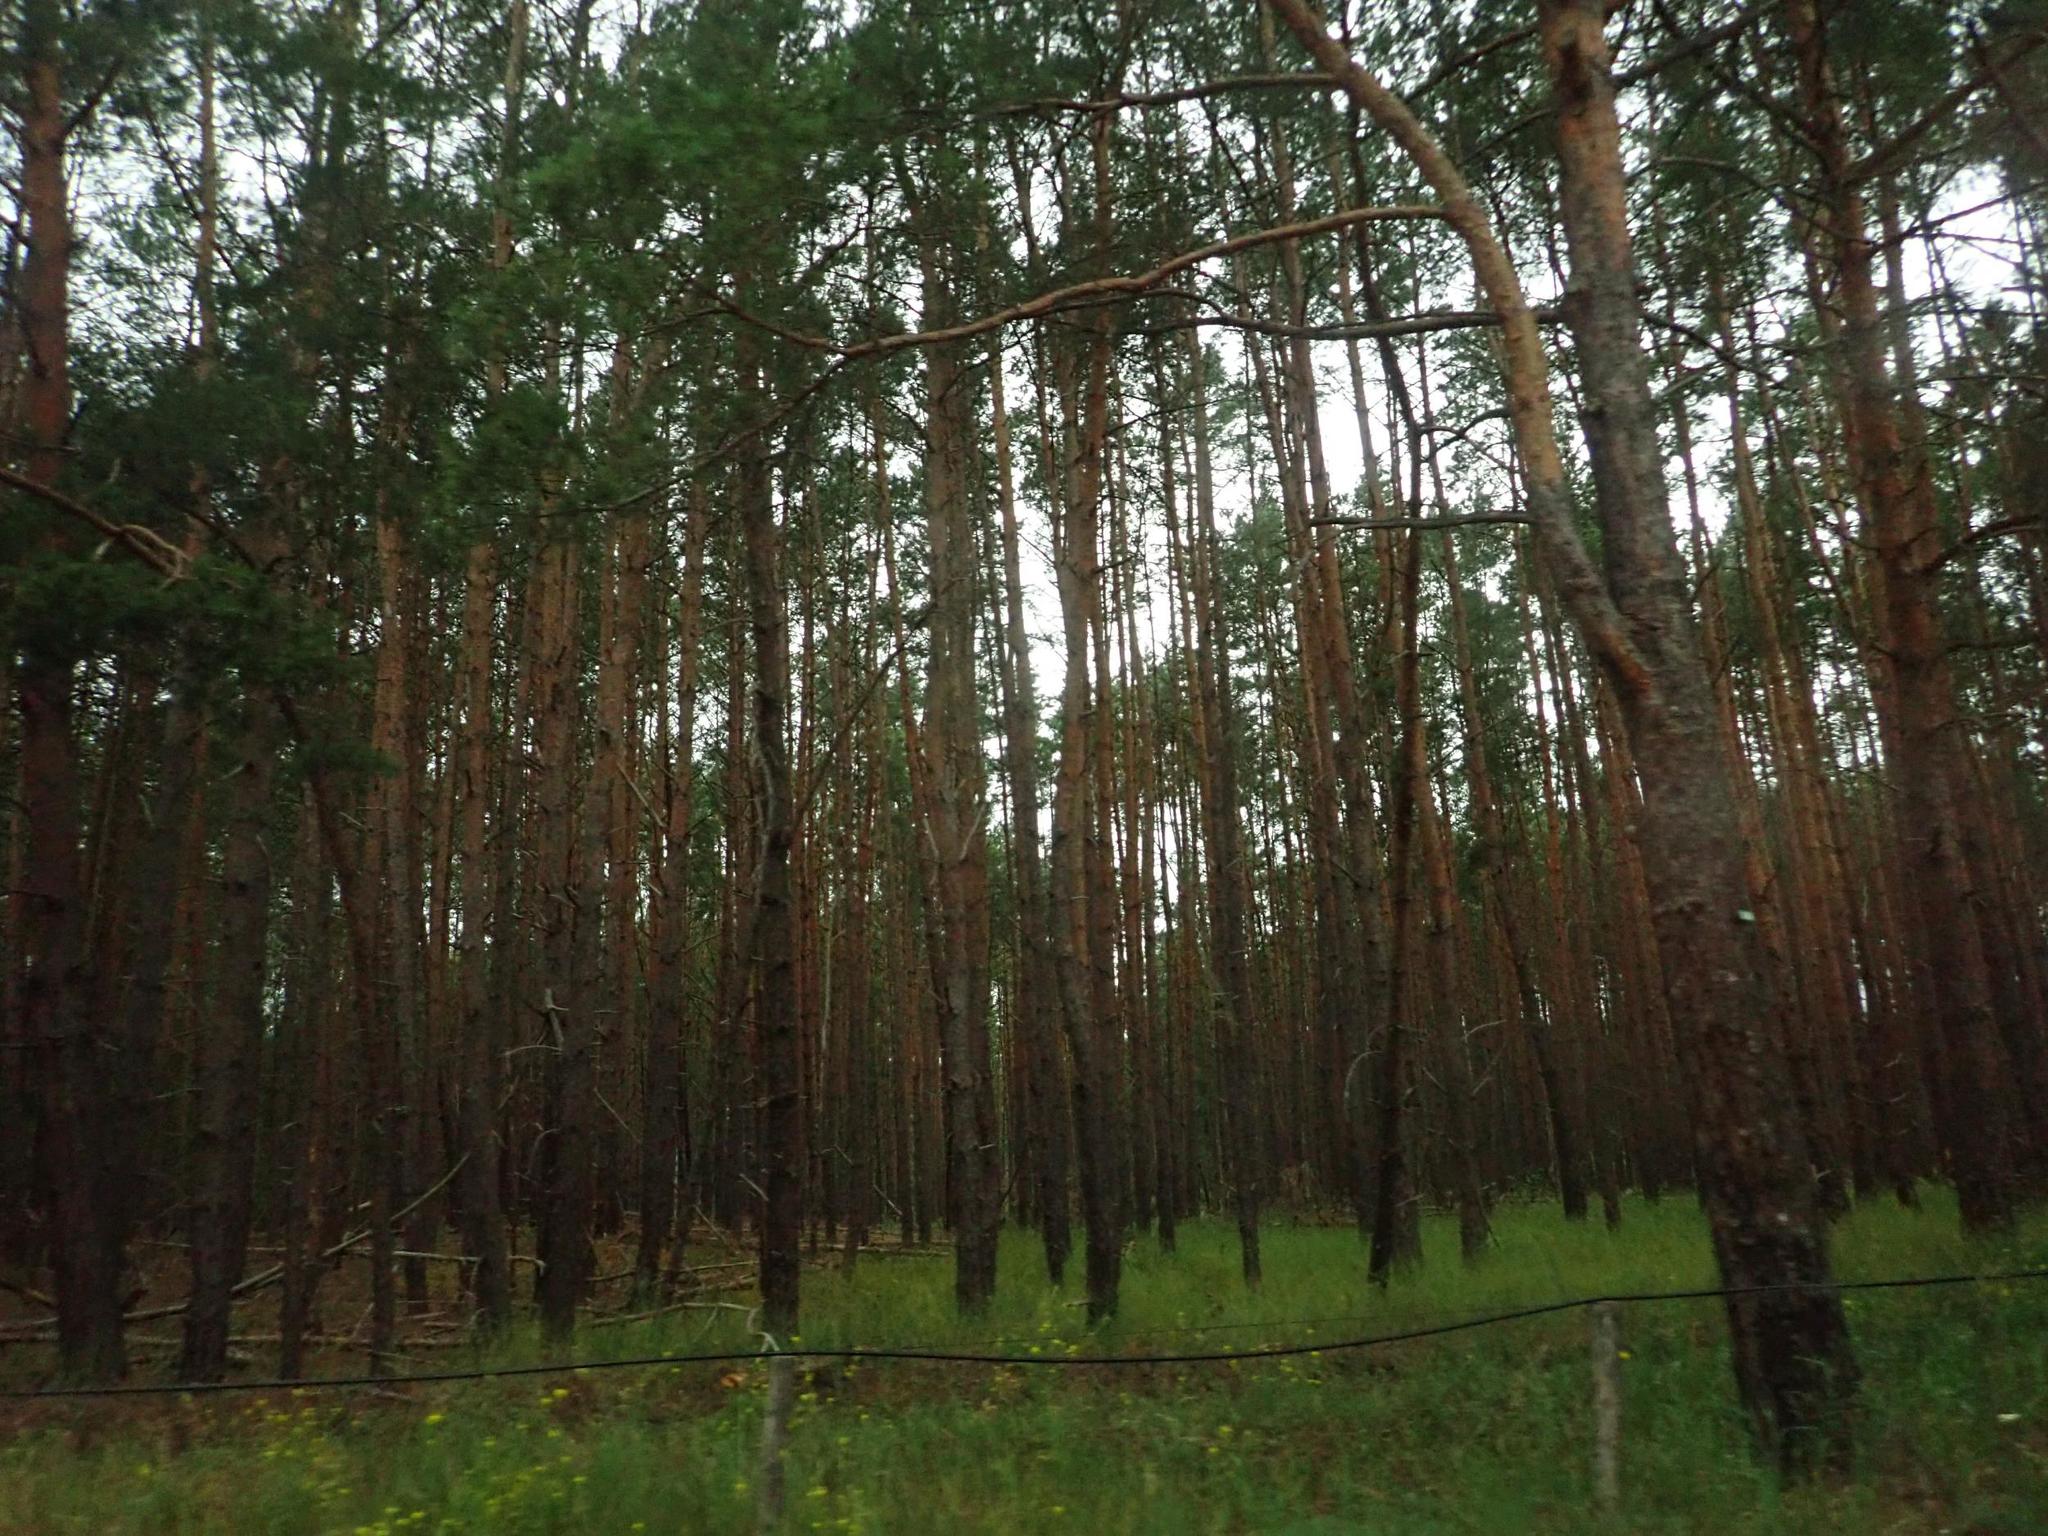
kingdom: Plantae
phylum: Tracheophyta
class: Pinopsida
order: Pinales
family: Pinaceae
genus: Pinus
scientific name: Pinus sylvestris
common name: Scots pine
